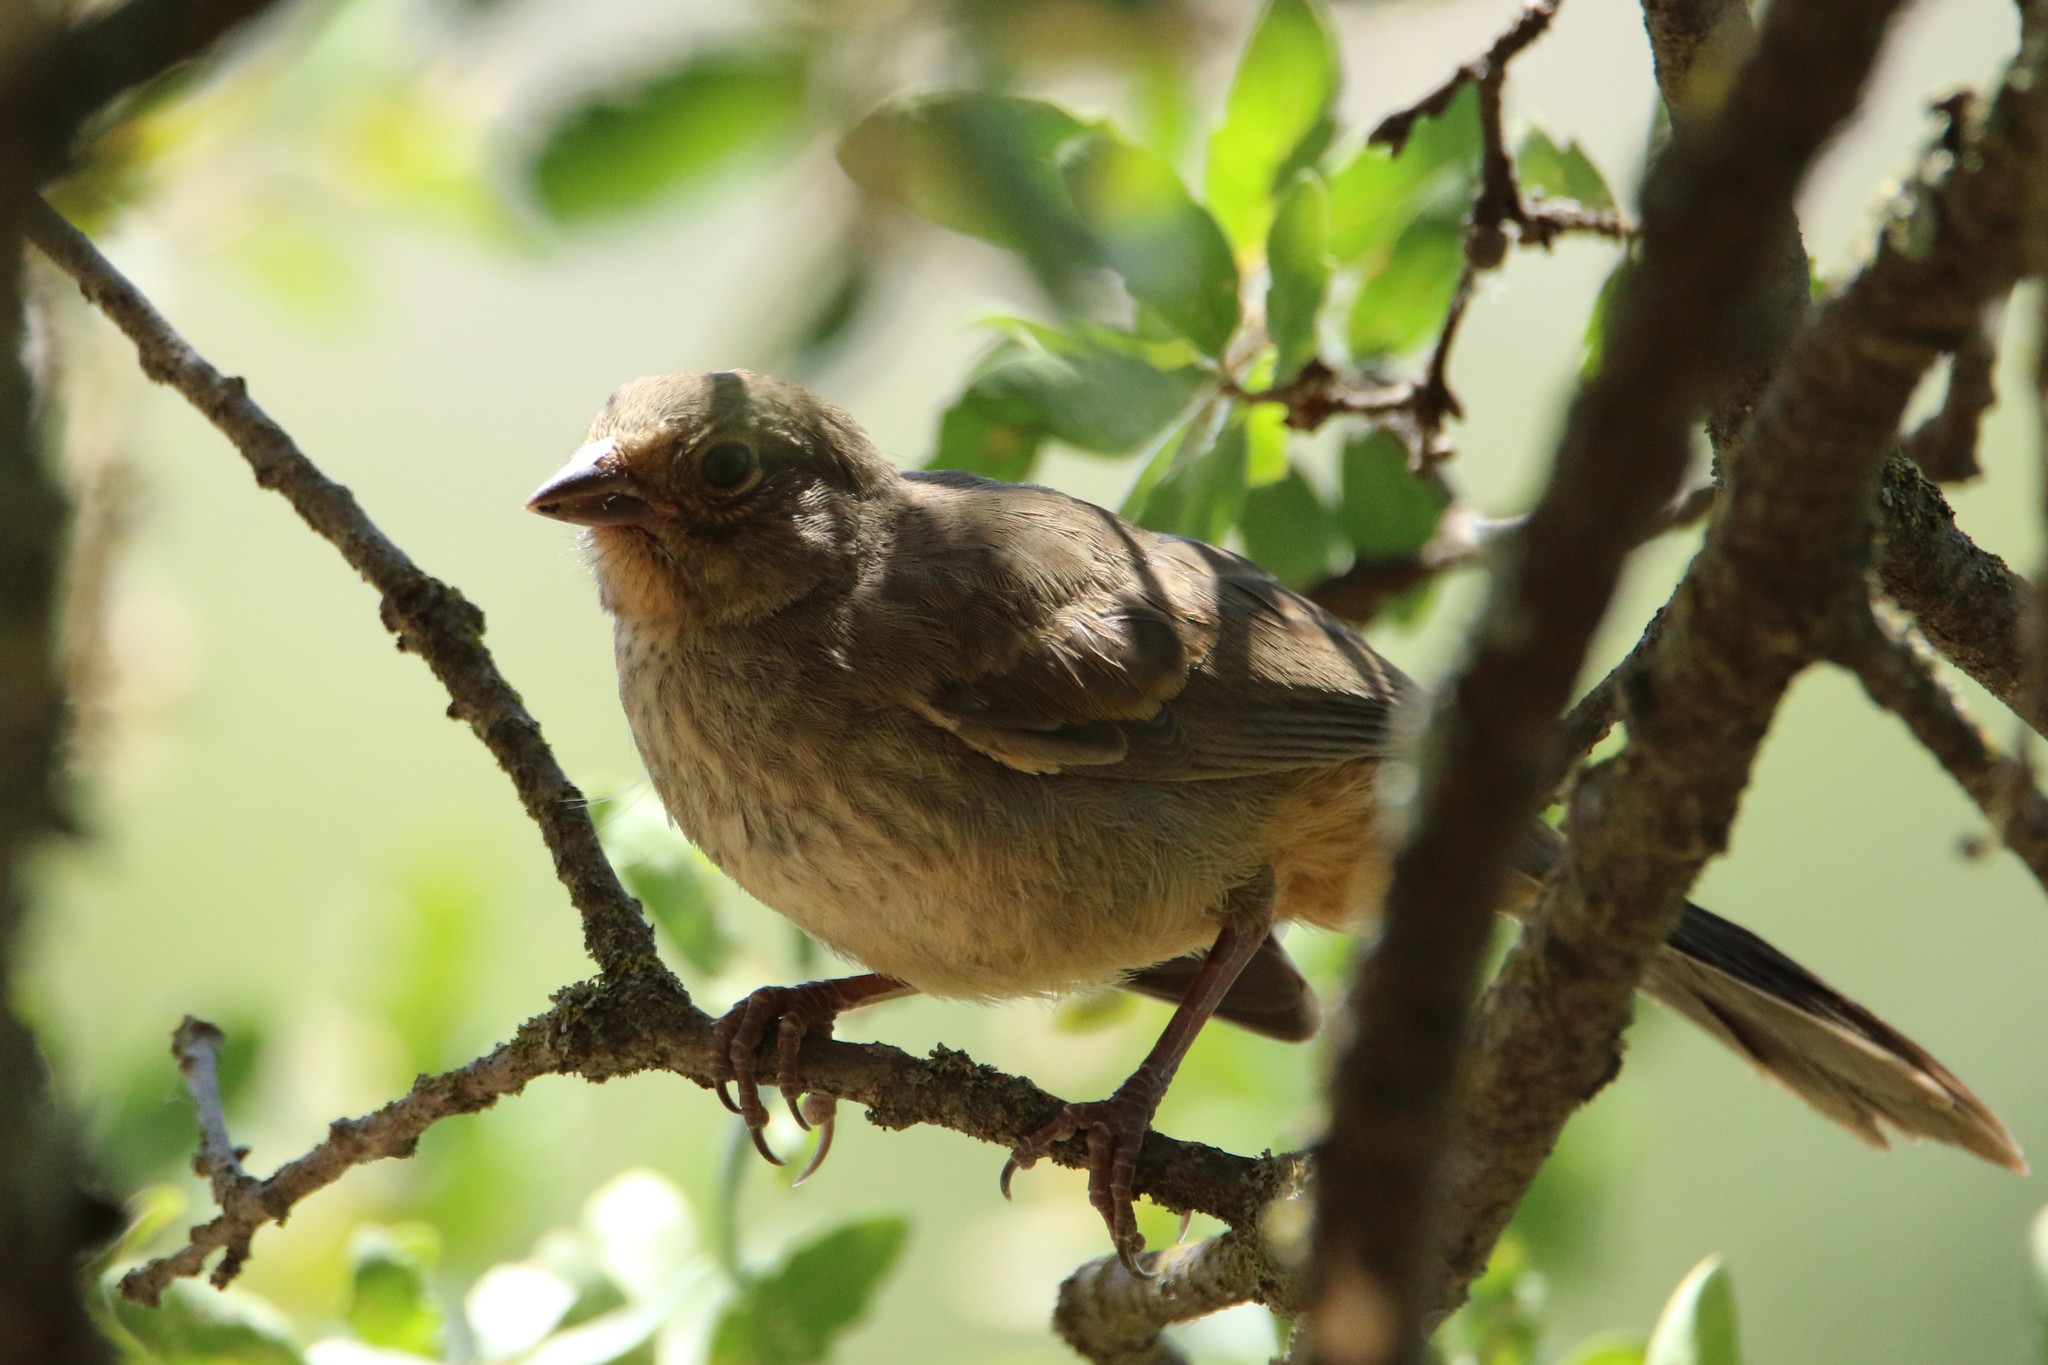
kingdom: Animalia
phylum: Chordata
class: Aves
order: Passeriformes
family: Passerellidae
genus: Melozone
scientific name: Melozone crissalis
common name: California towhee
